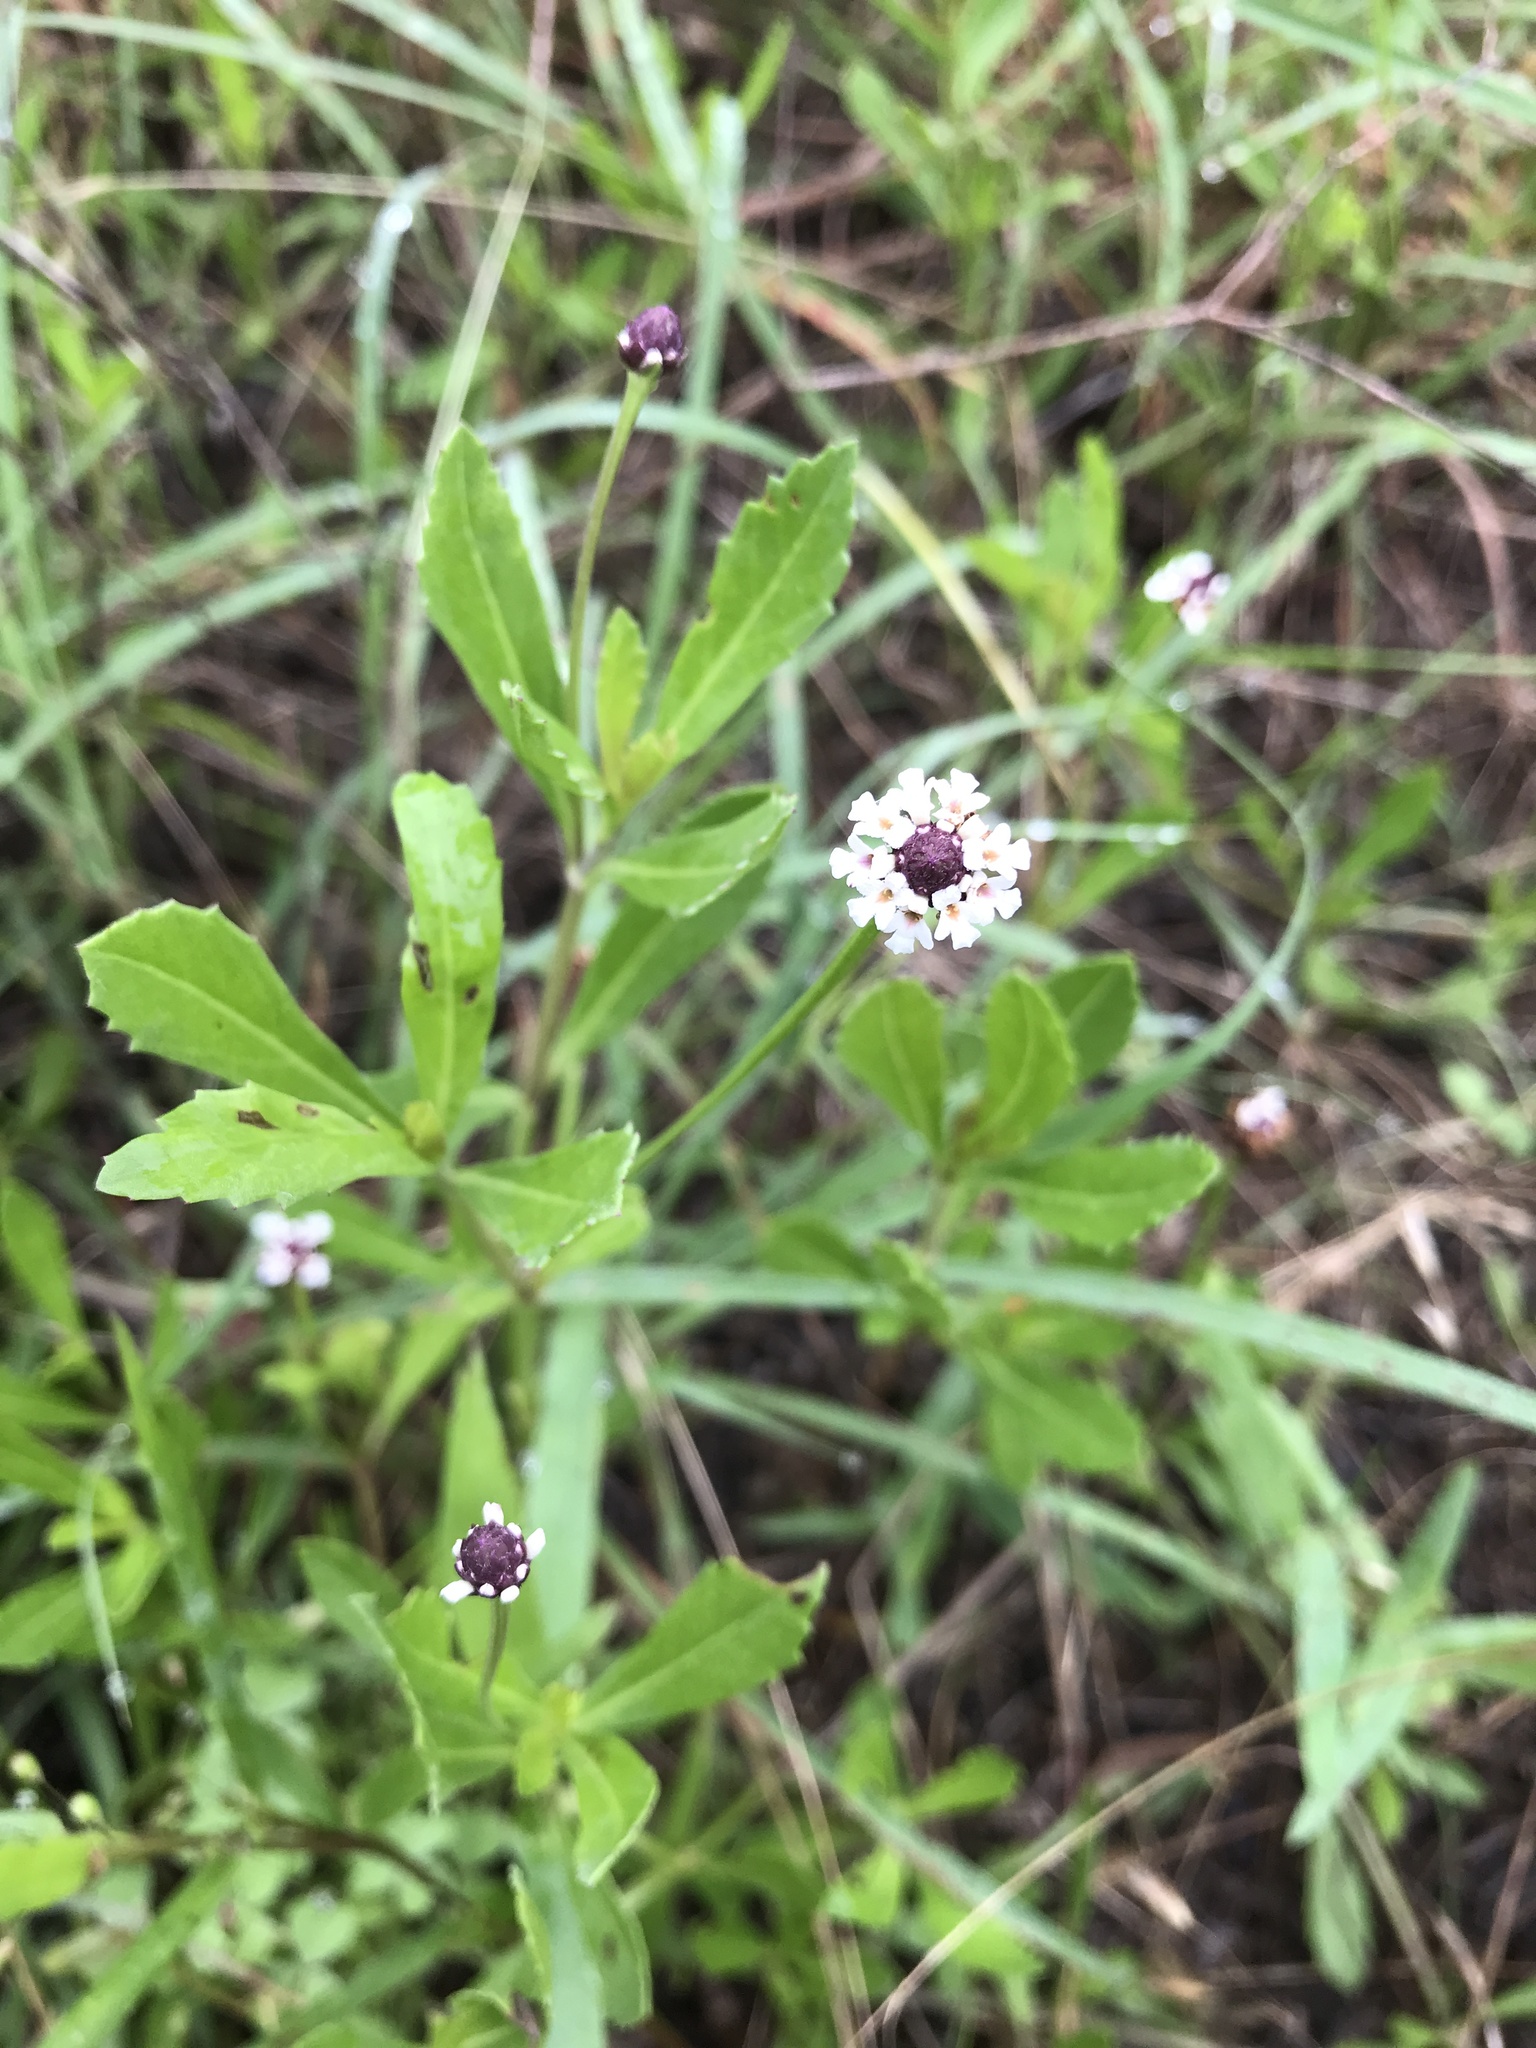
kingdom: Plantae
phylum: Tracheophyta
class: Magnoliopsida
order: Lamiales
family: Verbenaceae
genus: Phyla
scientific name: Phyla nodiflora
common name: Frogfruit
